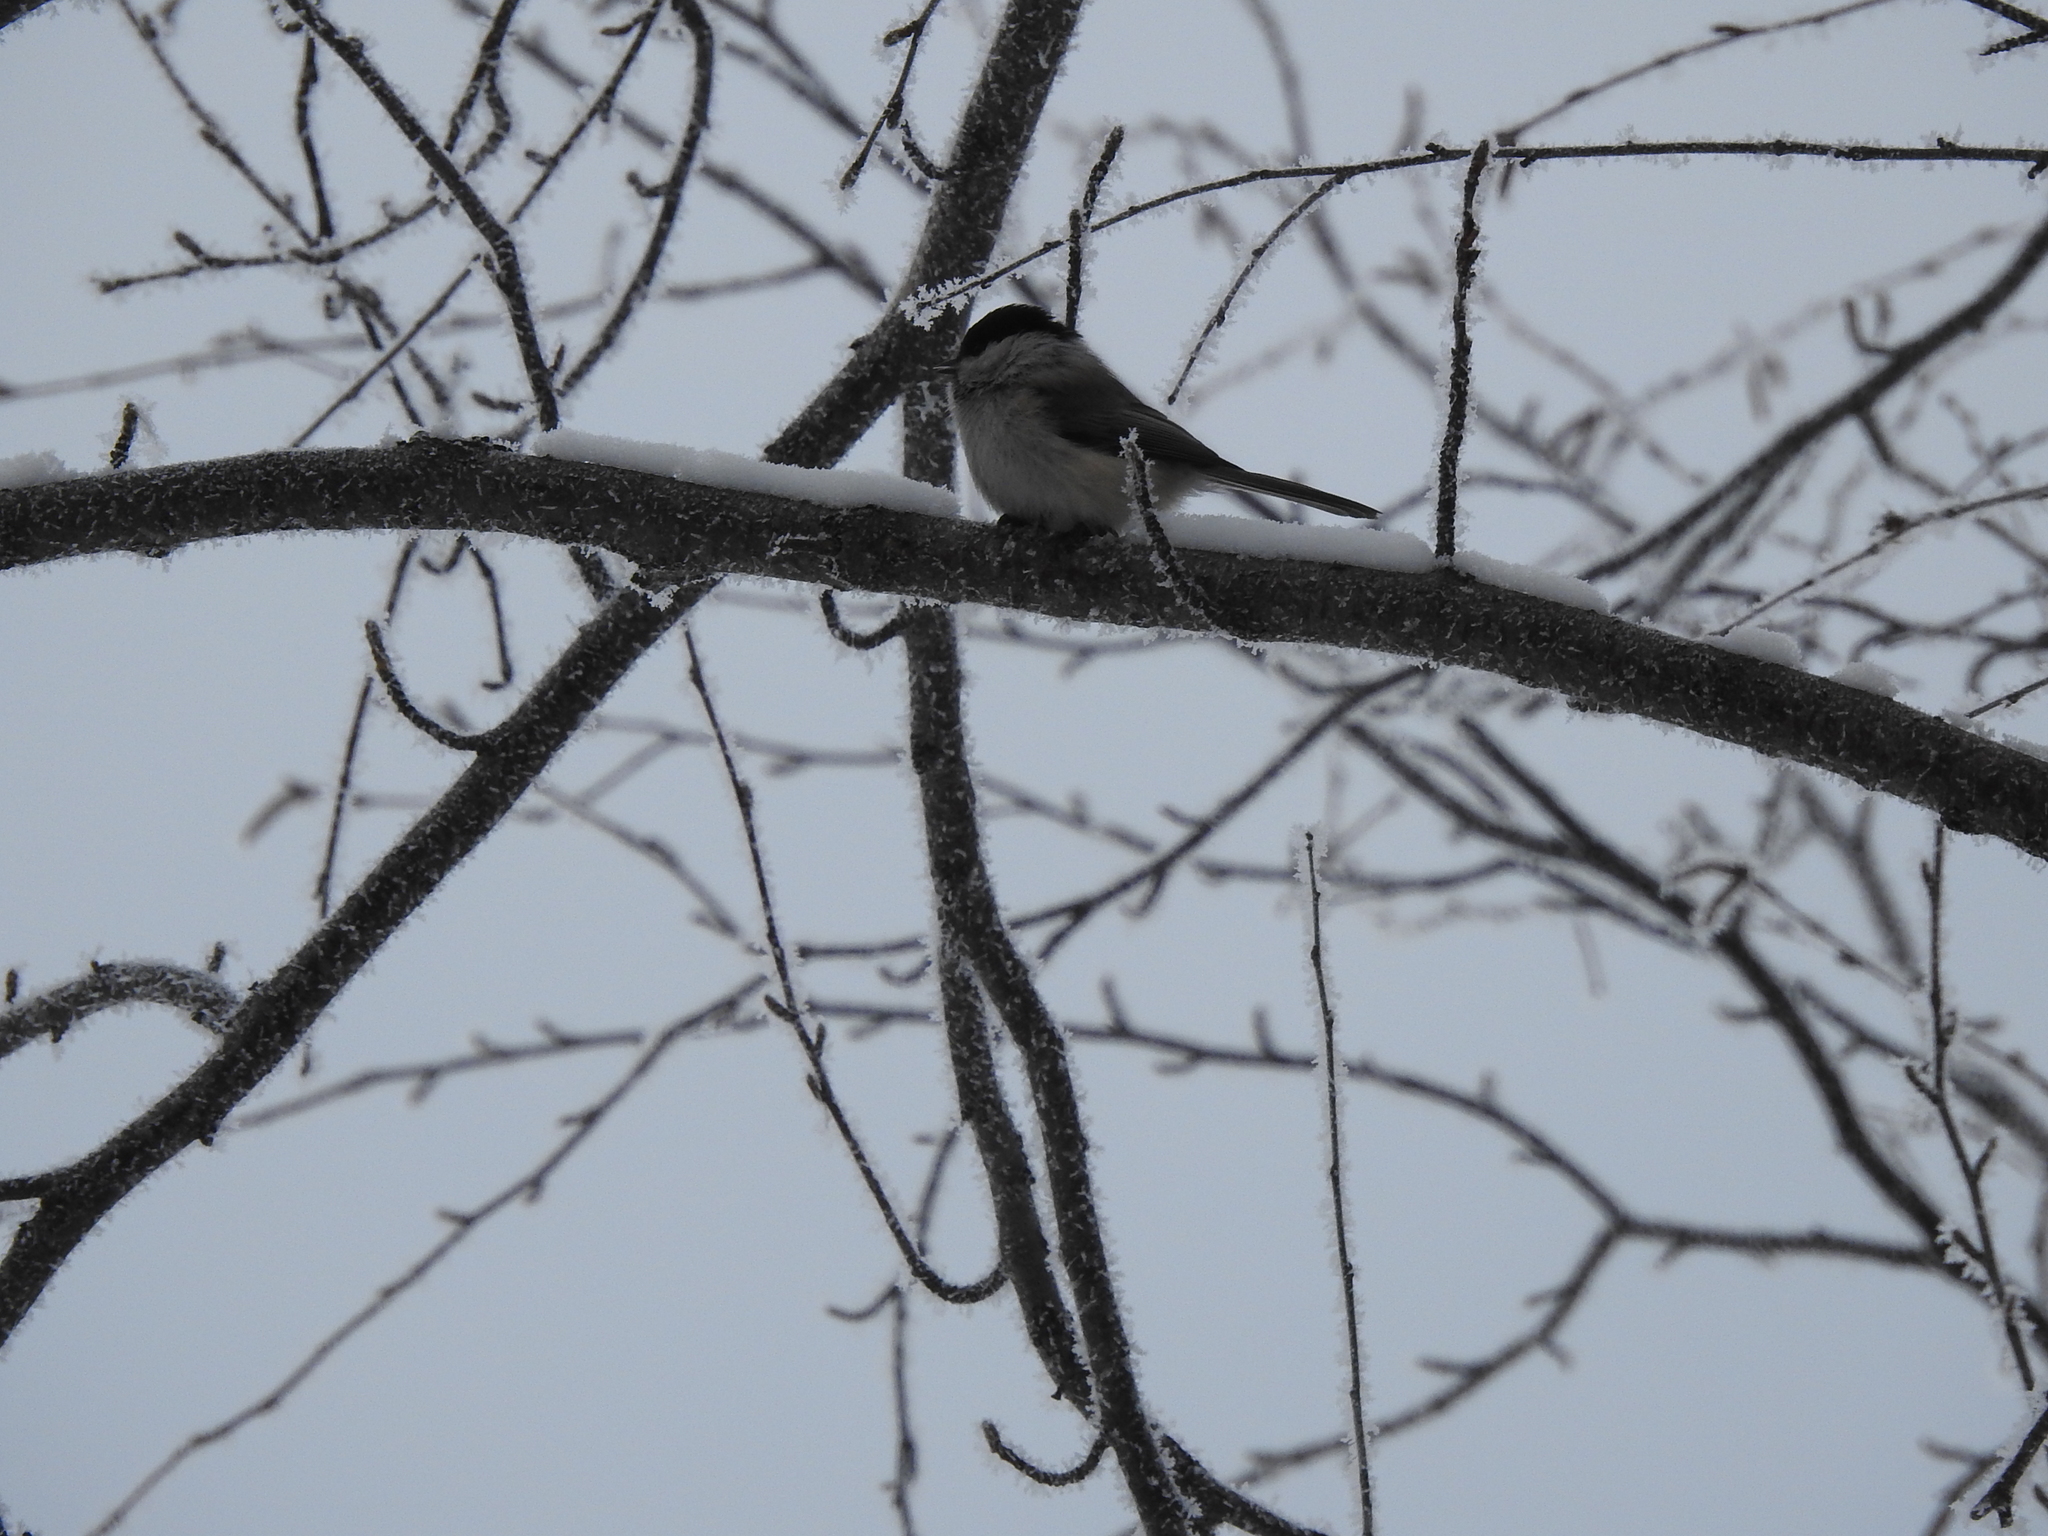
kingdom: Animalia
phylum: Chordata
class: Aves
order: Passeriformes
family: Paridae
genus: Poecile
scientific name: Poecile montanus
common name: Willow tit
